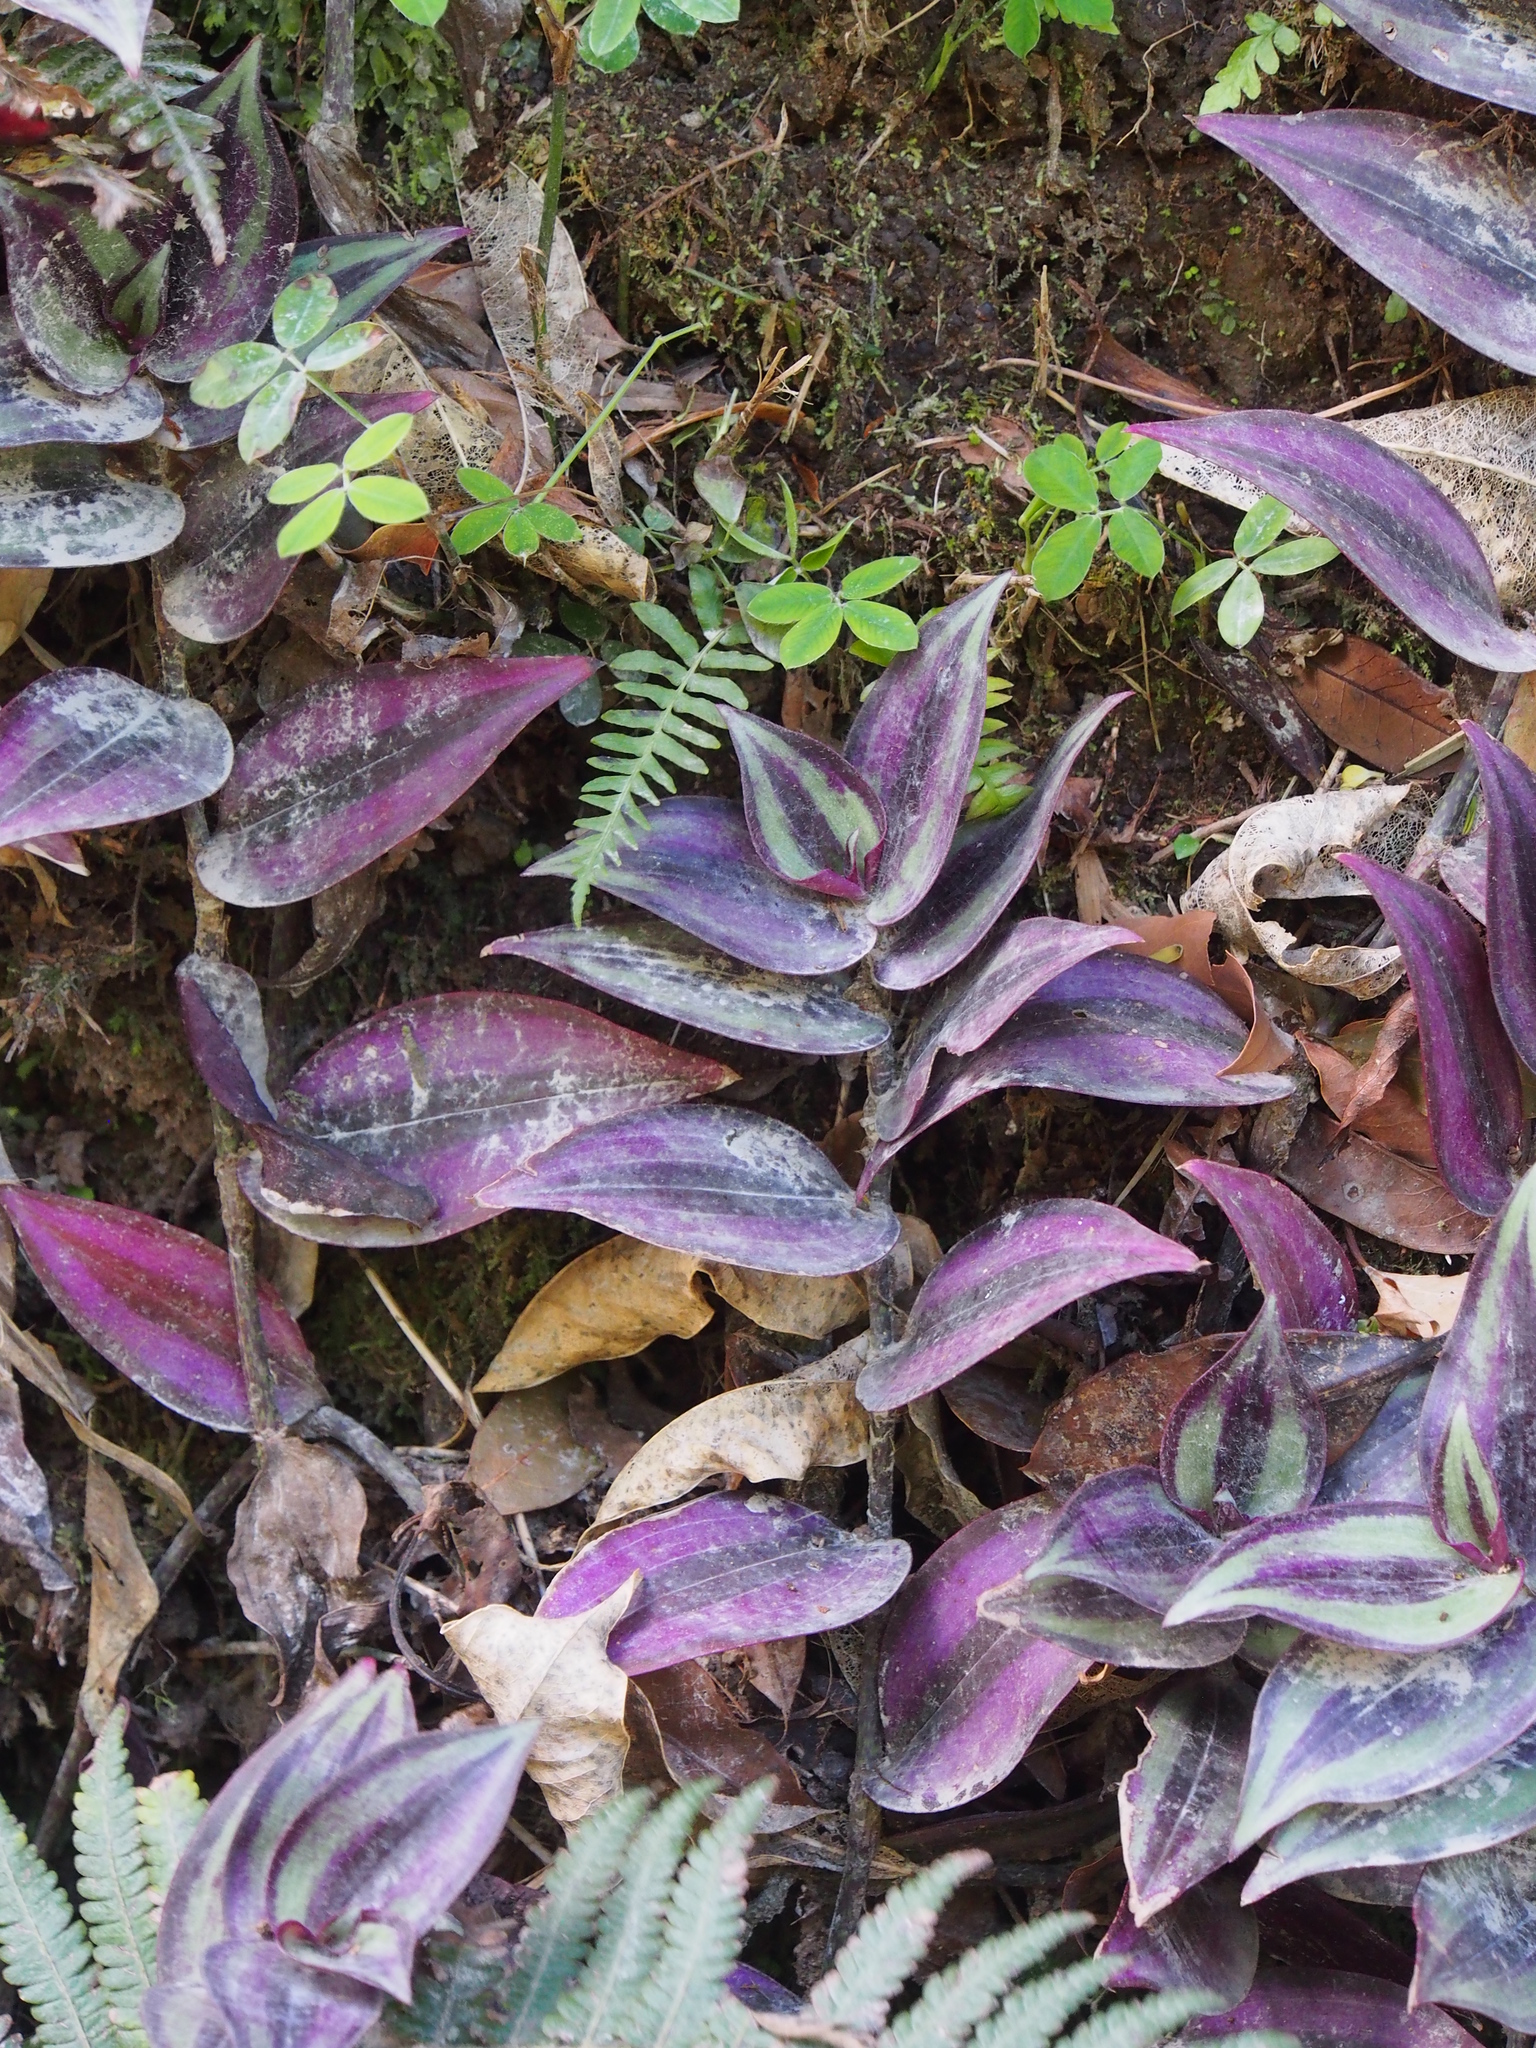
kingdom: Plantae
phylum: Tracheophyta
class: Liliopsida
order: Commelinales
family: Commelinaceae
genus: Tradescantia
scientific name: Tradescantia zebrina
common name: Inchplant
